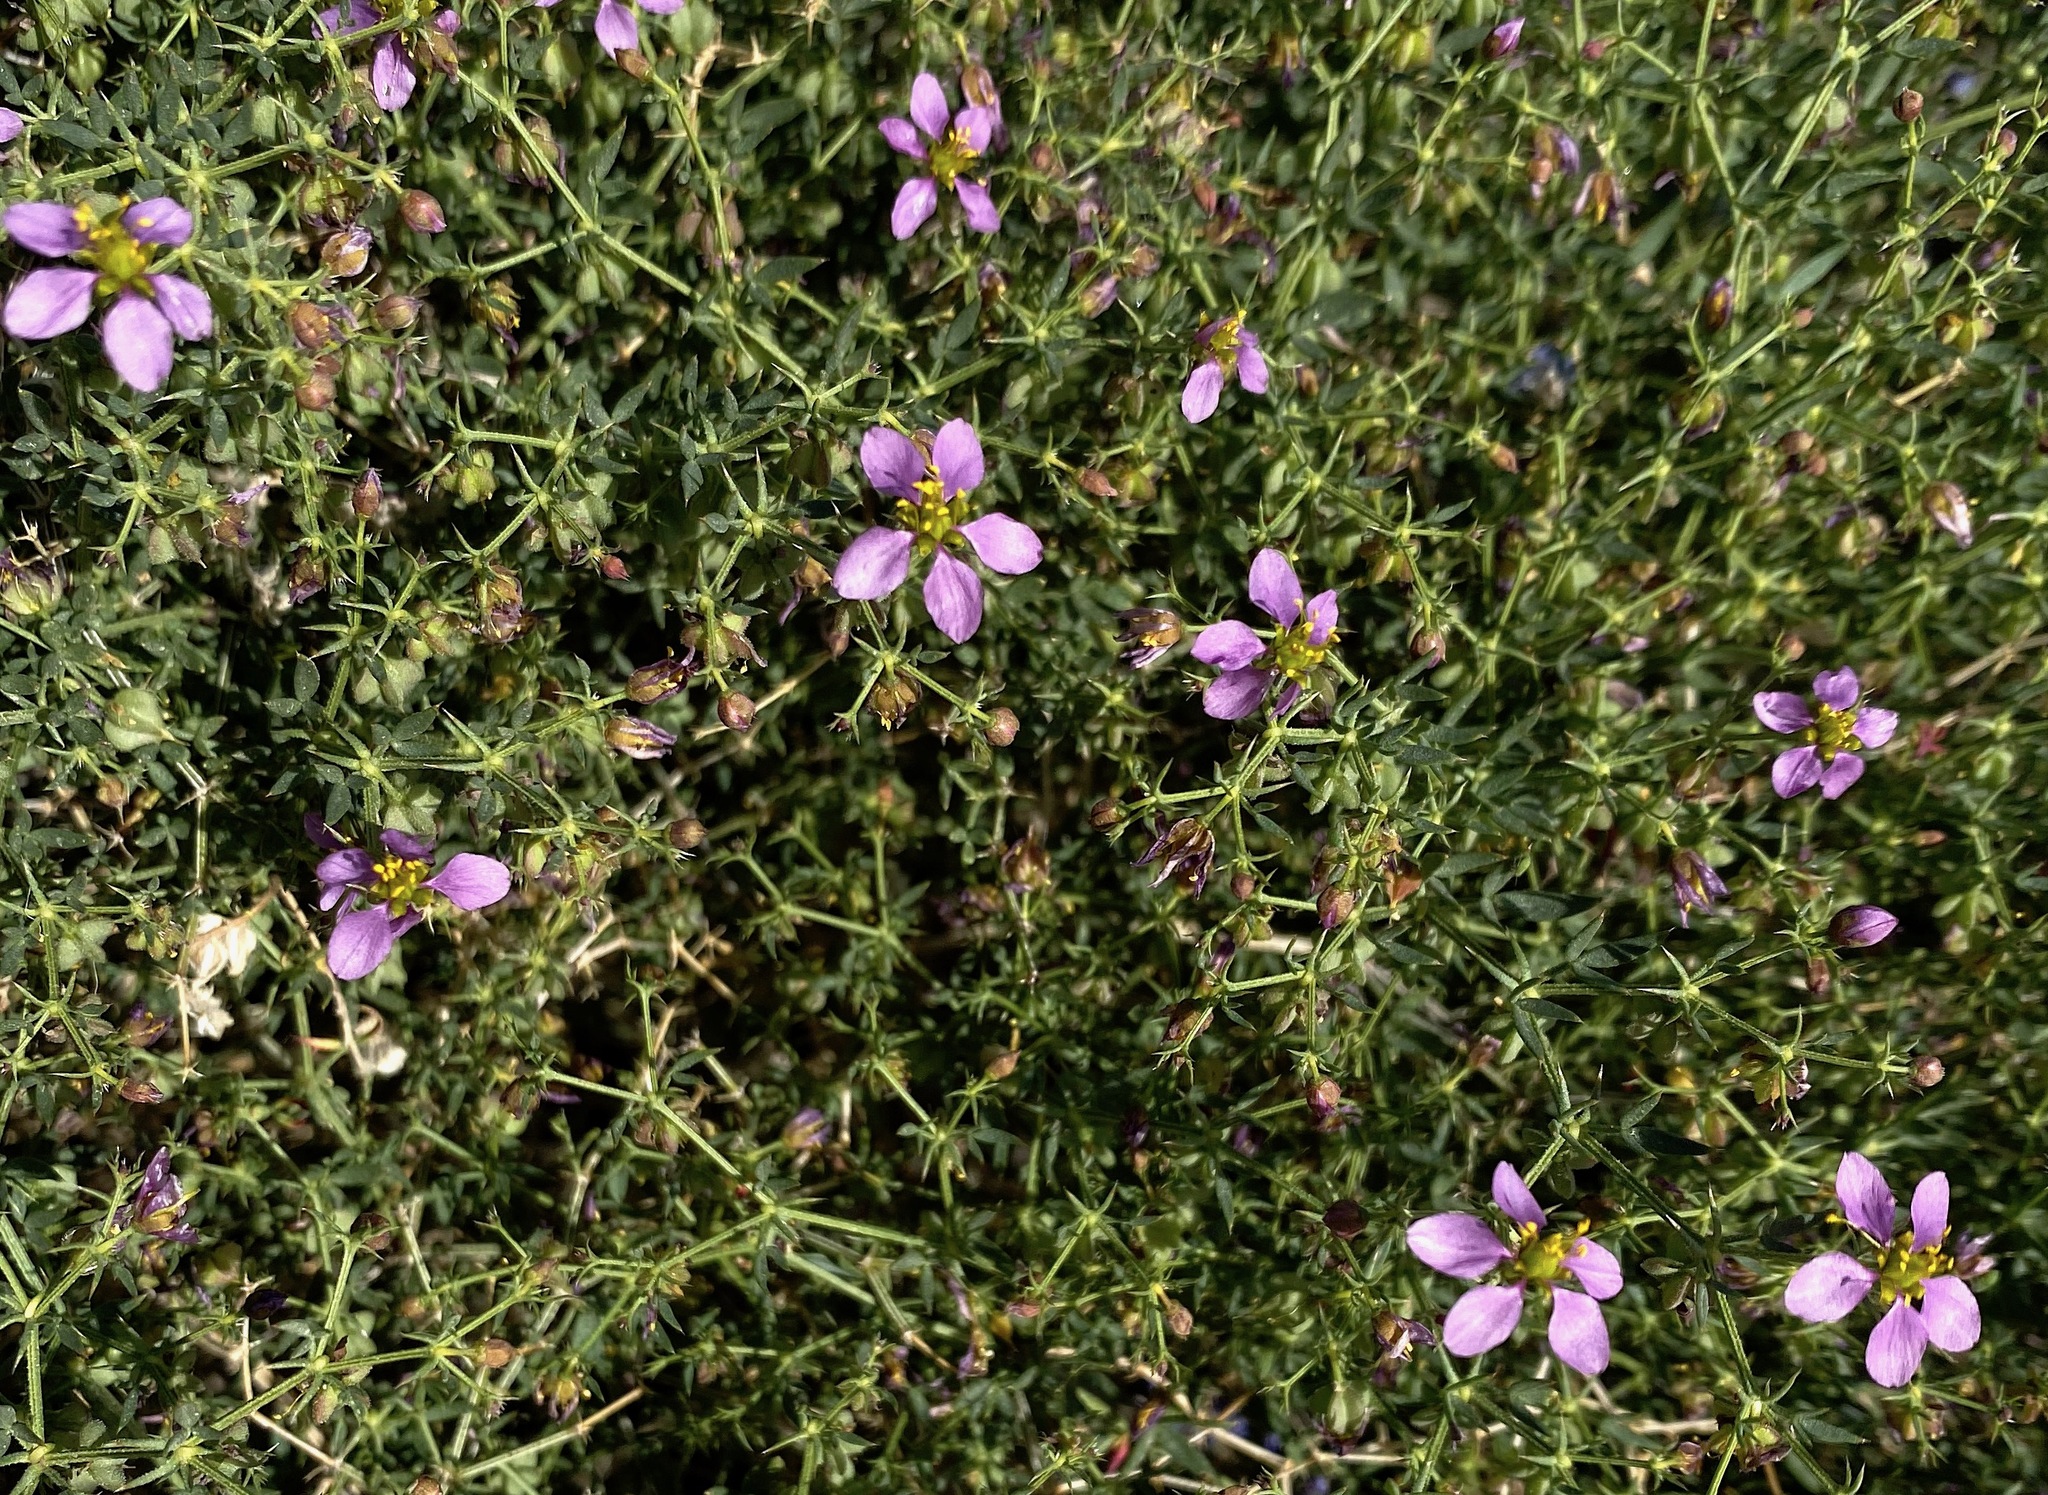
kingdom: Plantae
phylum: Tracheophyta
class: Magnoliopsida
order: Zygophyllales
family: Zygophyllaceae
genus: Fagonia
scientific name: Fagonia laevis
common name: California fagonbush
